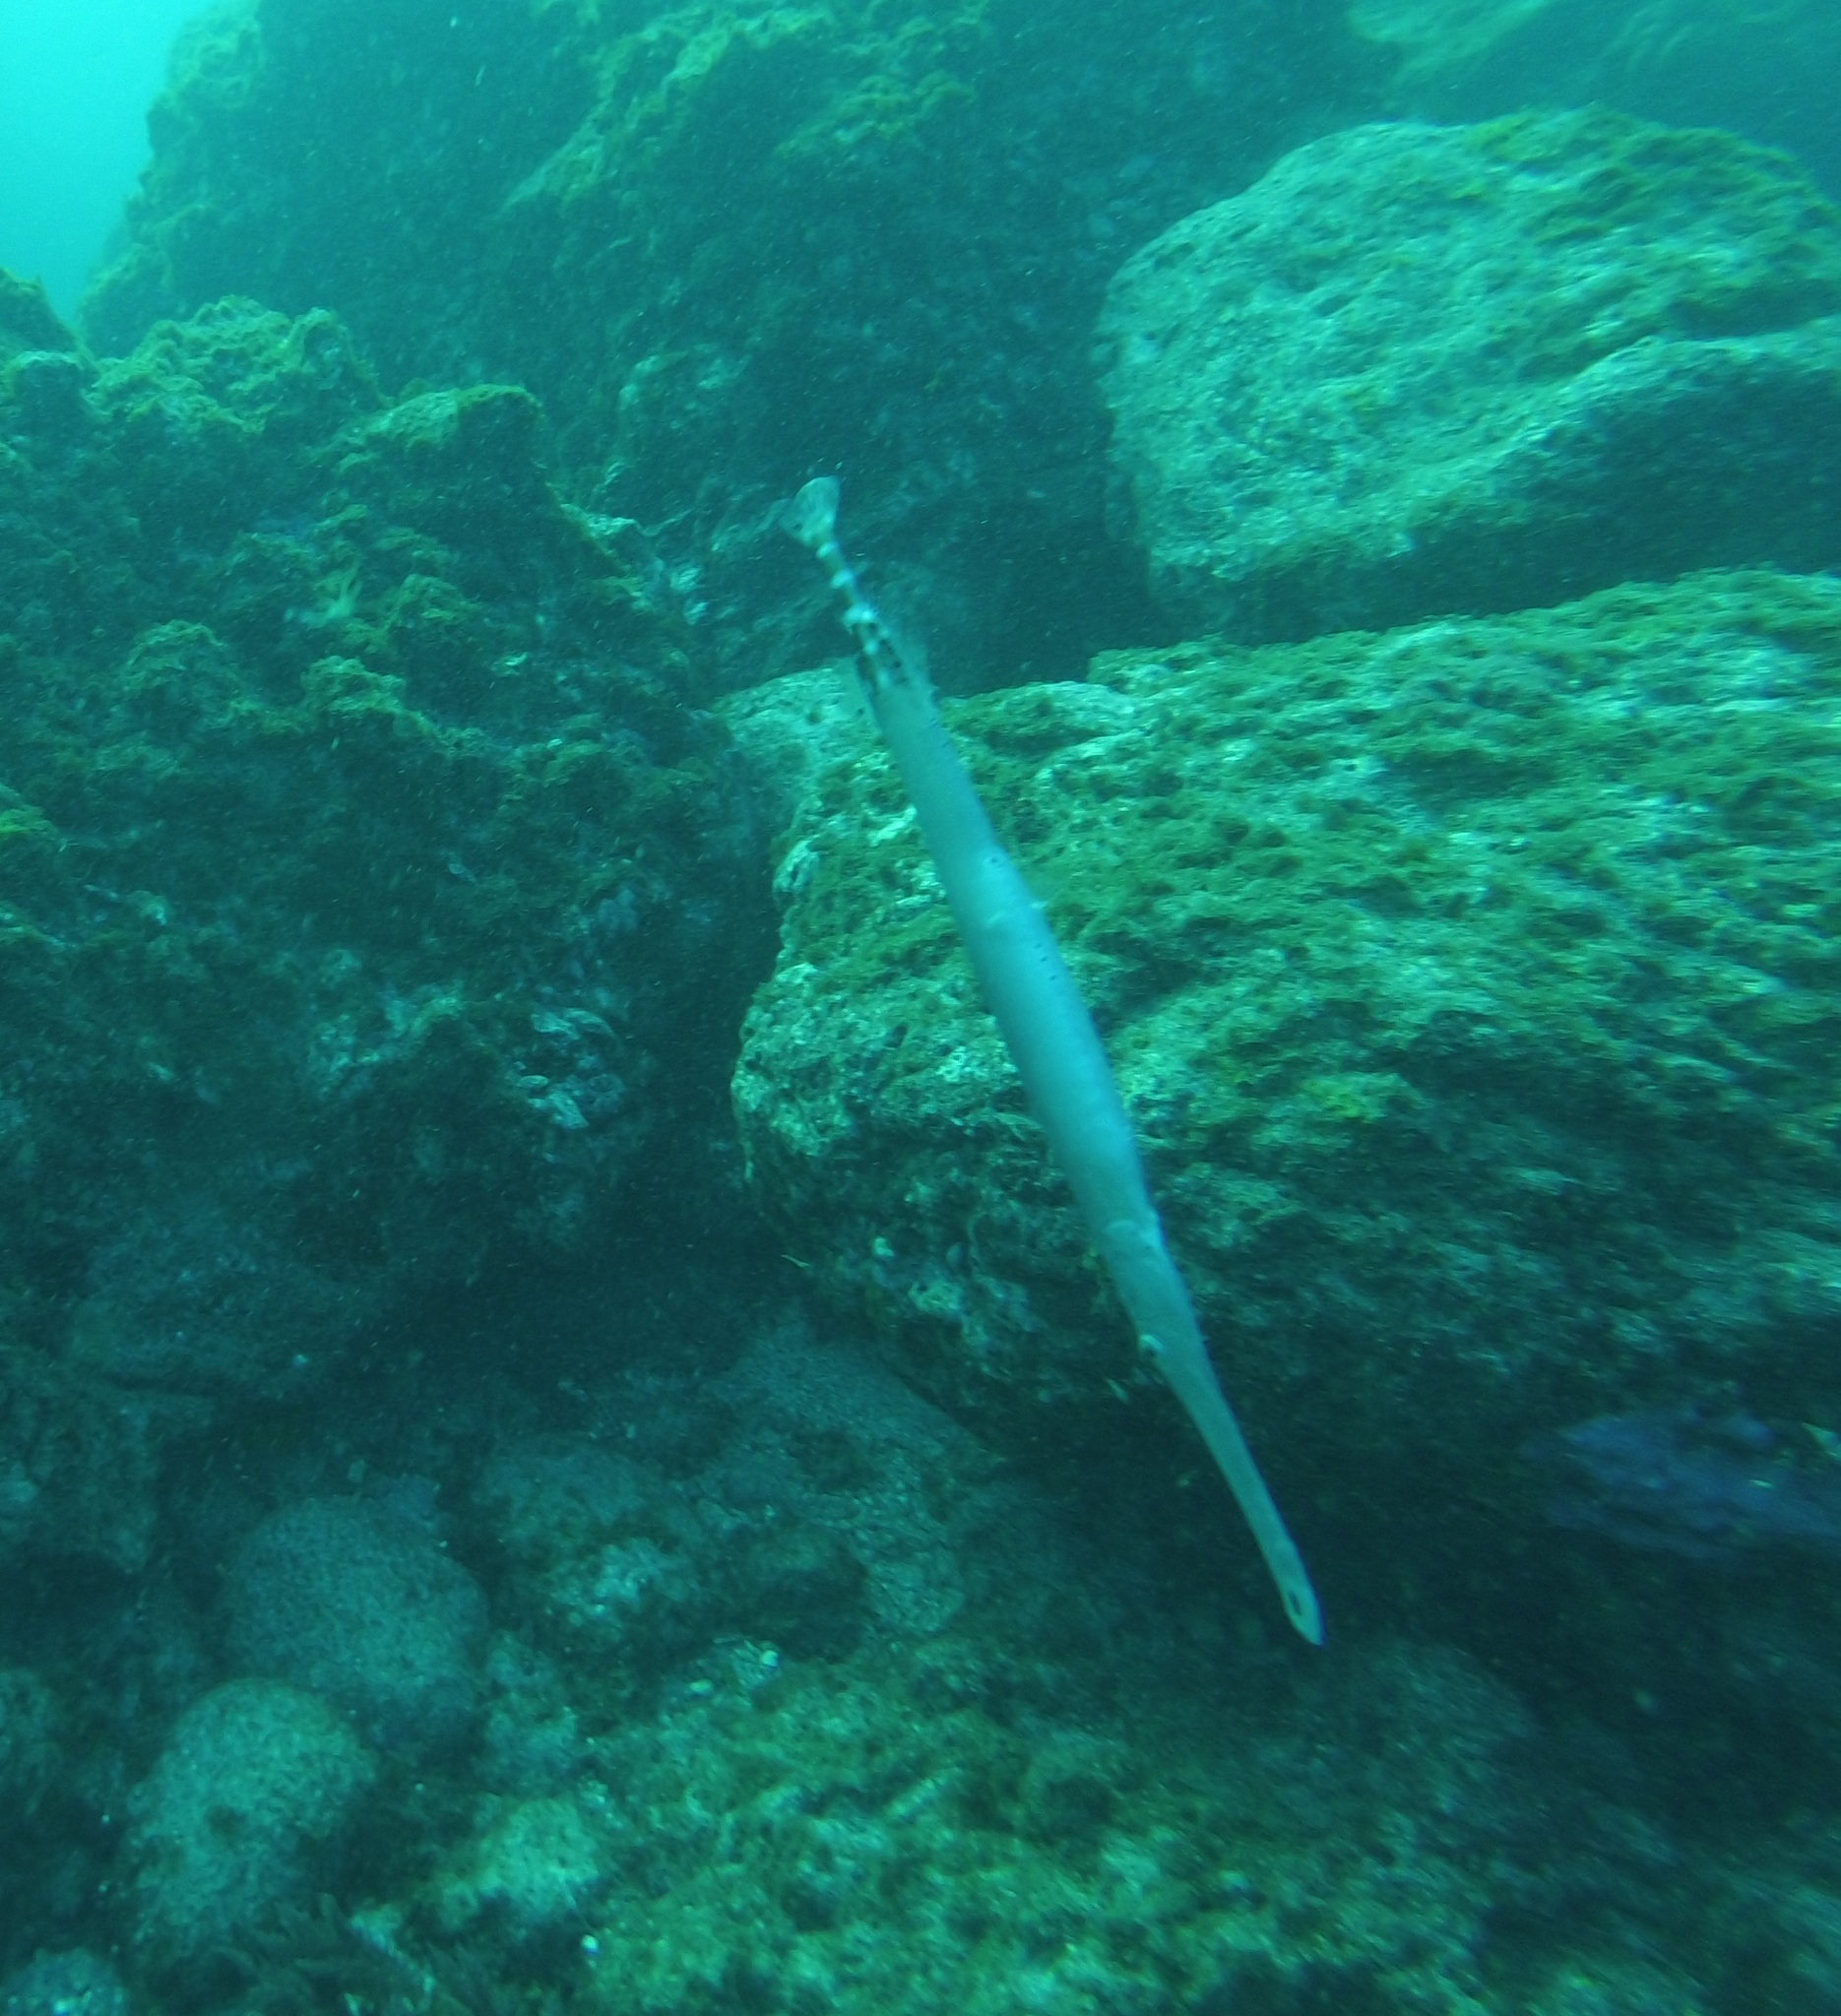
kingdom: Animalia
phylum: Chordata
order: Syngnathiformes
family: Aulostomidae
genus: Aulostomus
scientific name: Aulostomus strigosus
